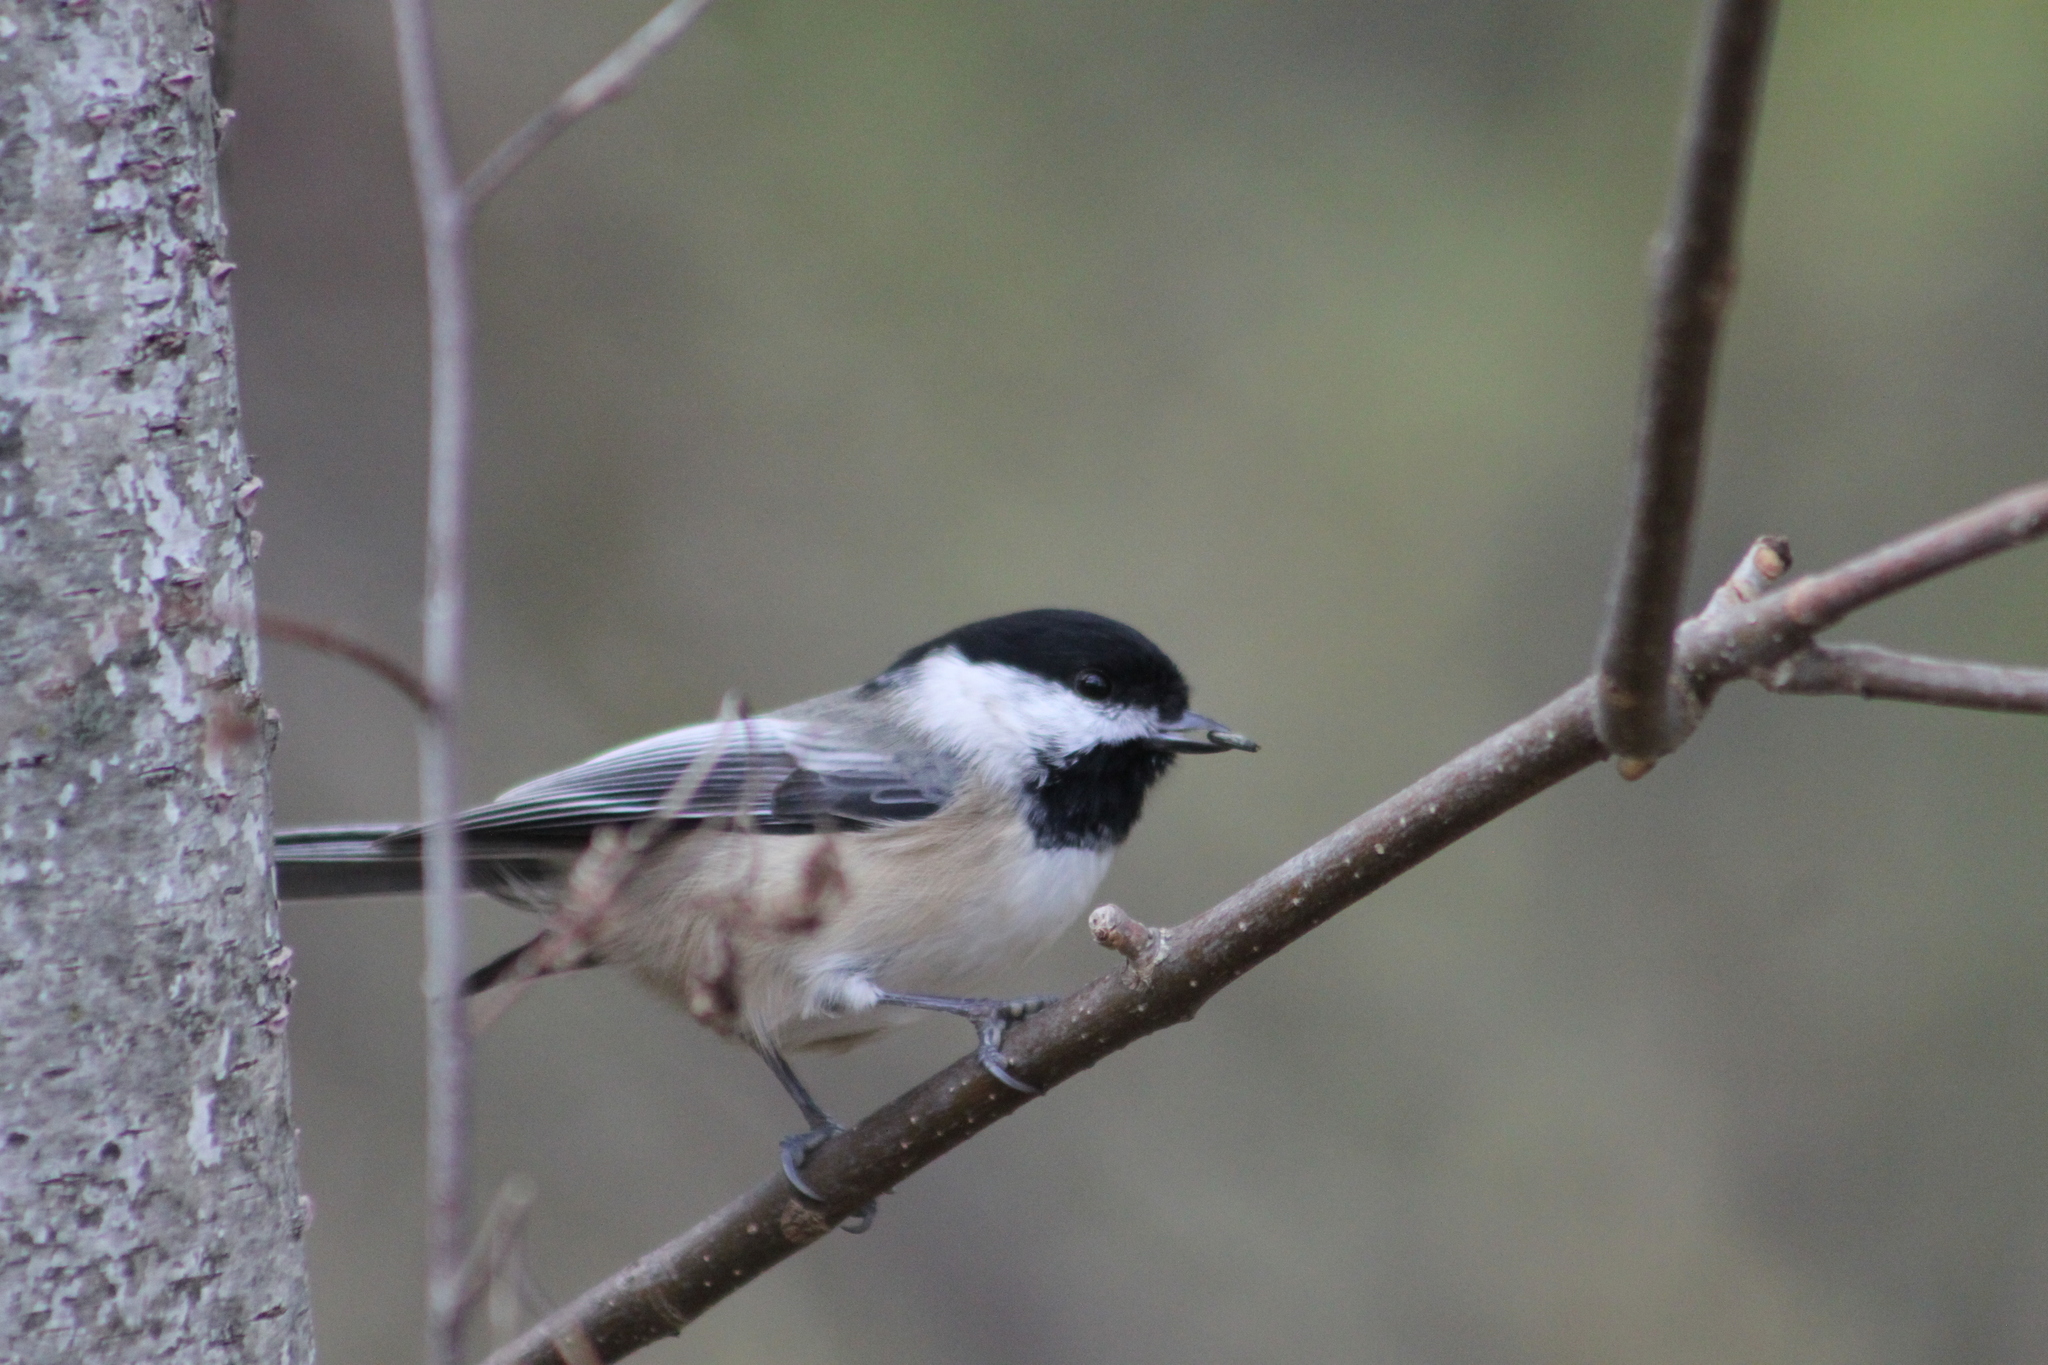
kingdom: Animalia
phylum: Chordata
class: Aves
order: Passeriformes
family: Paridae
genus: Poecile
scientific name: Poecile atricapillus
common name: Black-capped chickadee
